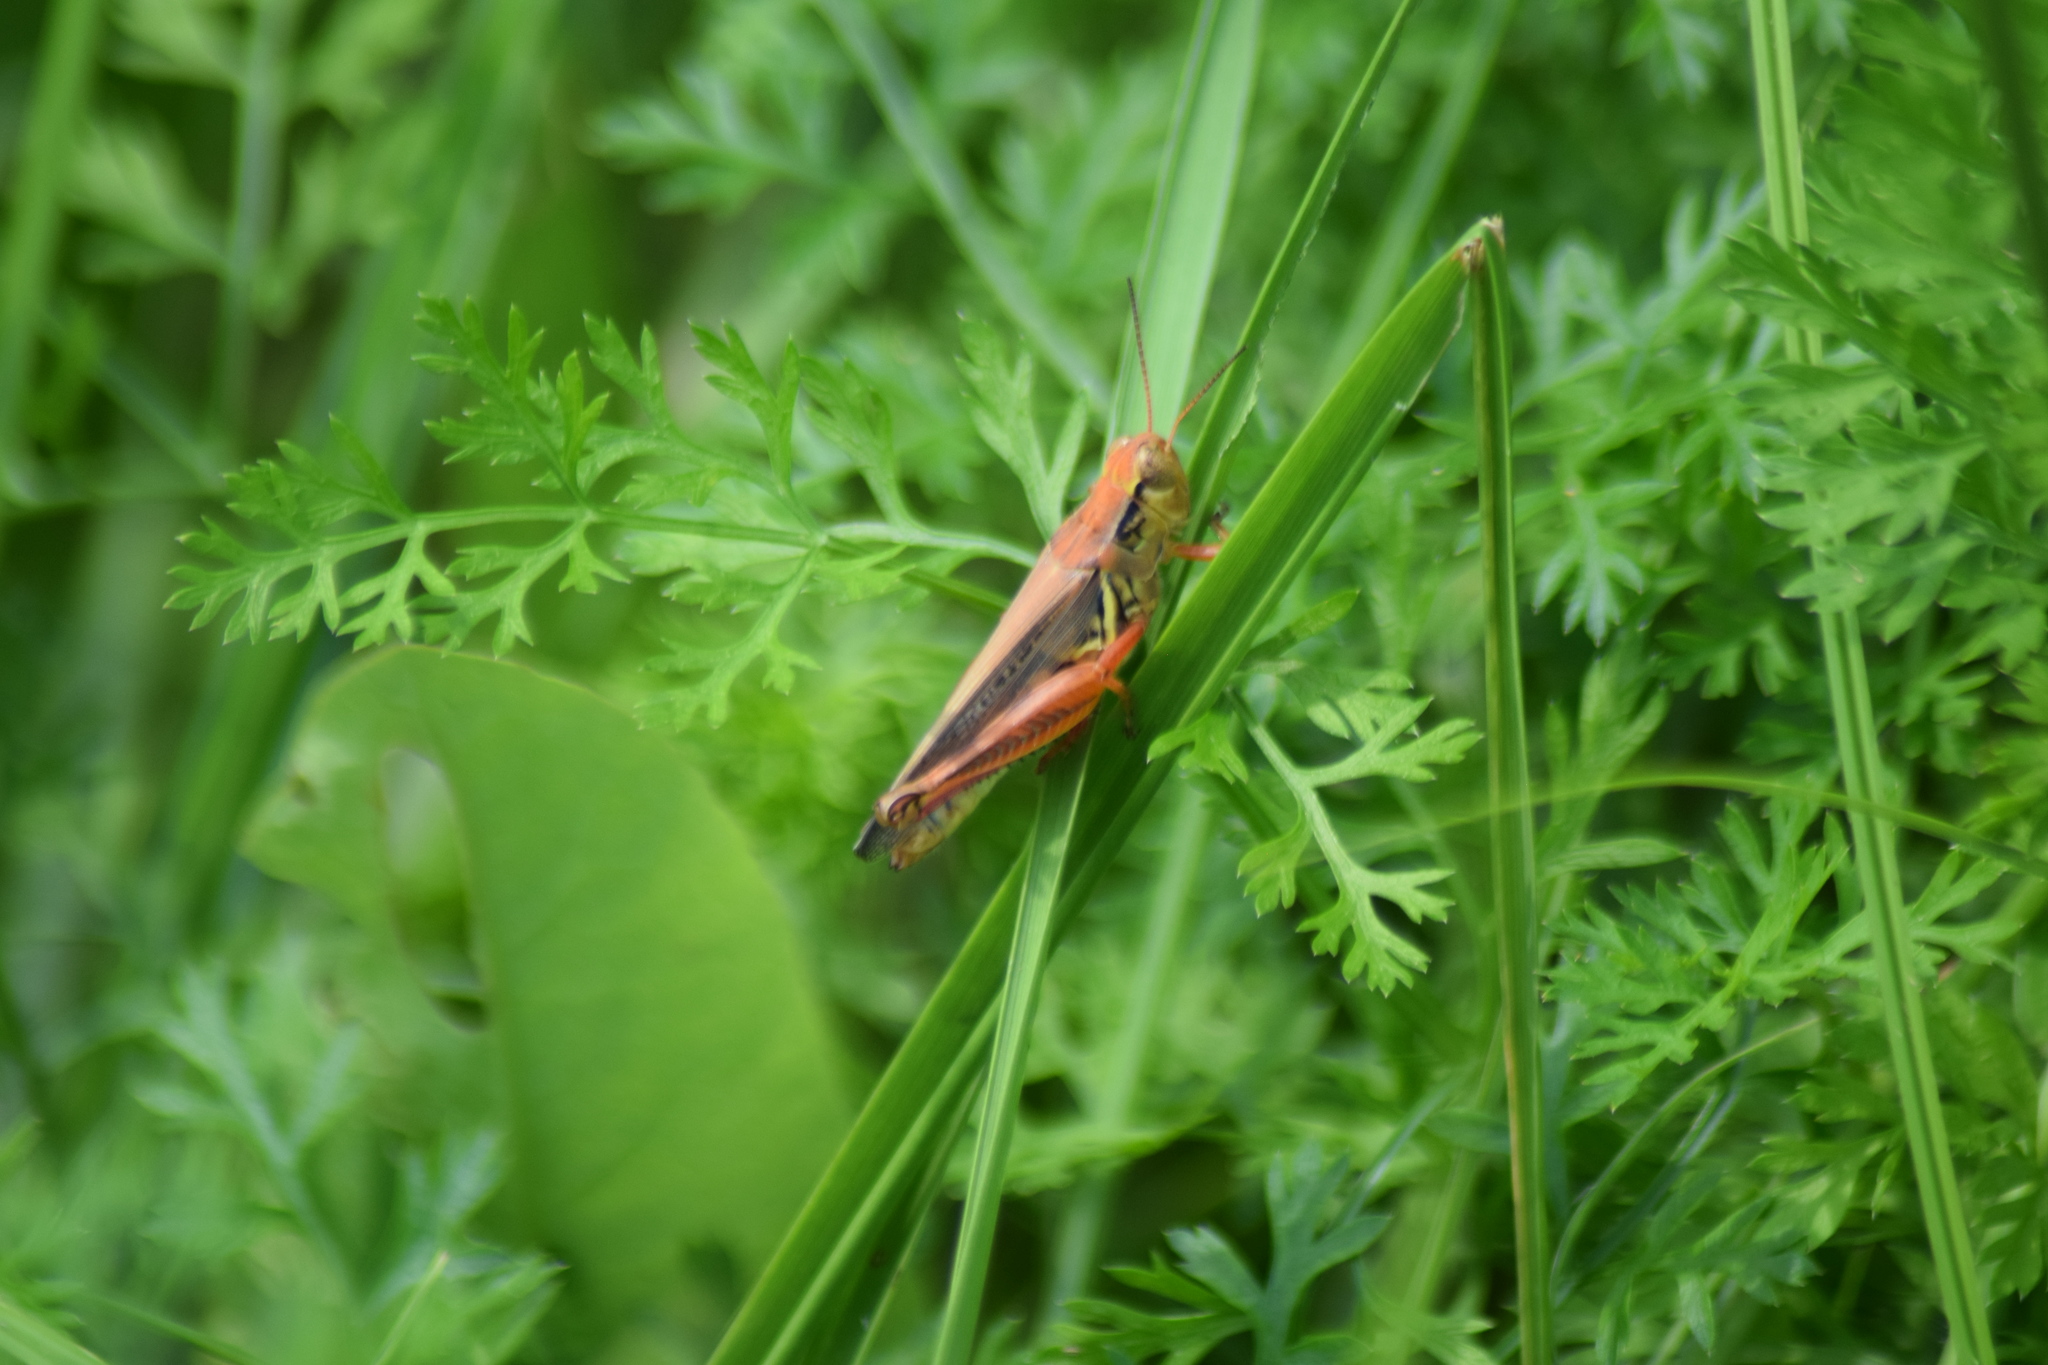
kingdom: Animalia
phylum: Arthropoda
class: Insecta
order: Orthoptera
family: Acrididae
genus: Melanoplus
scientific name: Melanoplus femurrubrum
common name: Red-legged grasshopper
